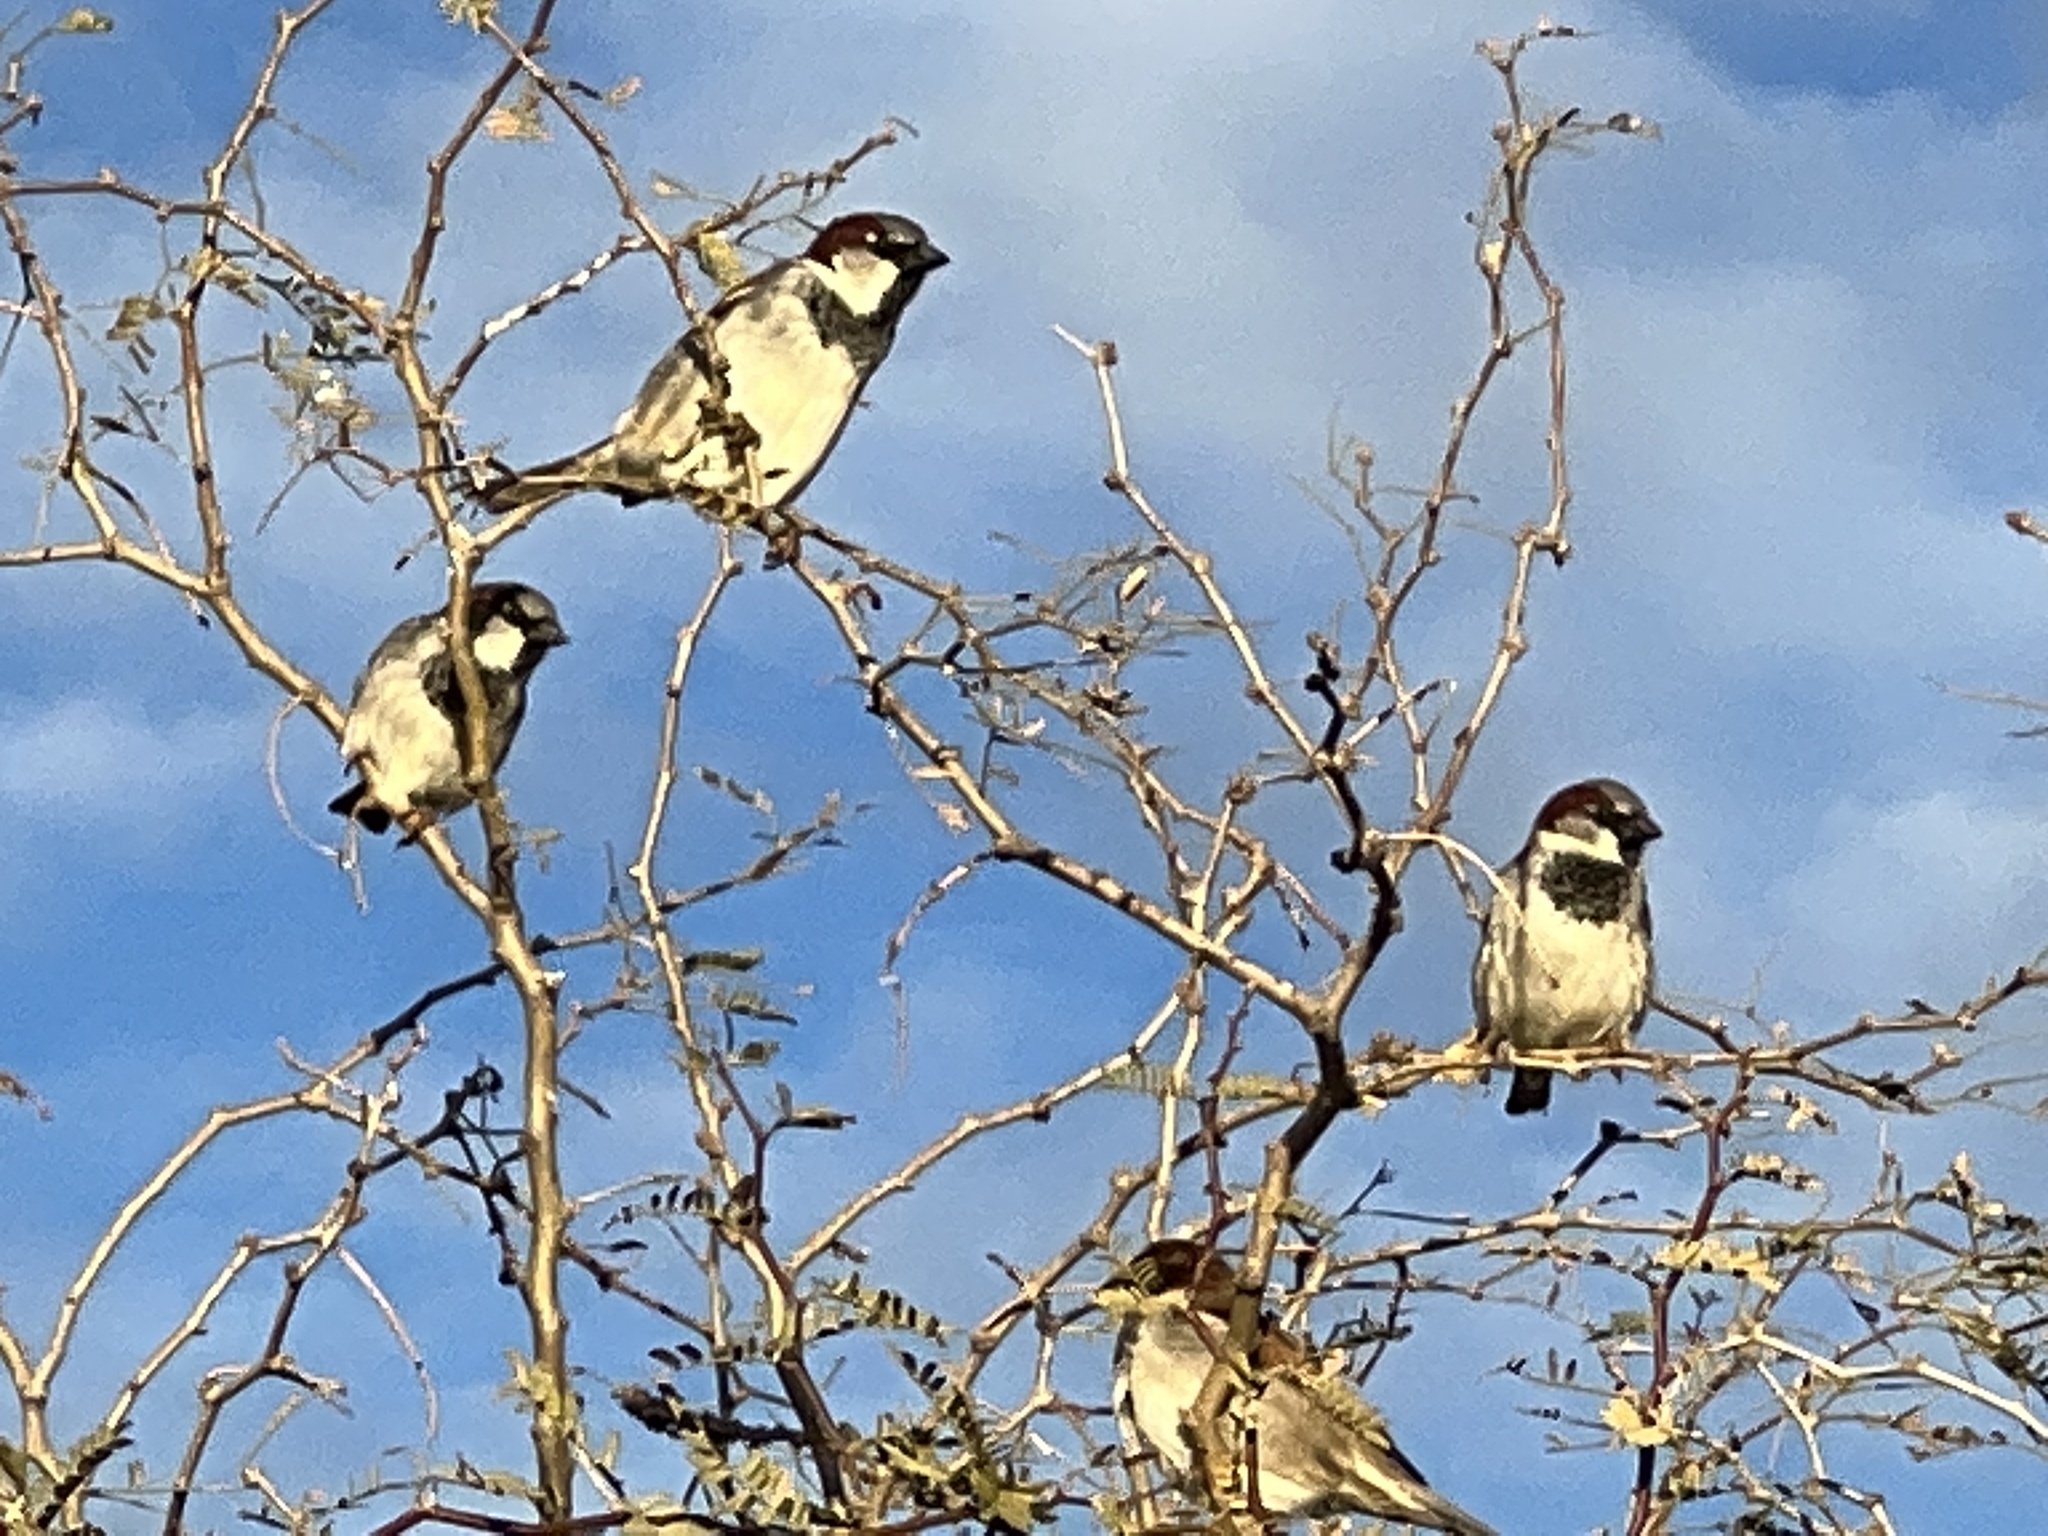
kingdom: Animalia
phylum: Chordata
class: Aves
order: Passeriformes
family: Passeridae
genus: Passer
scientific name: Passer domesticus
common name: House sparrow
